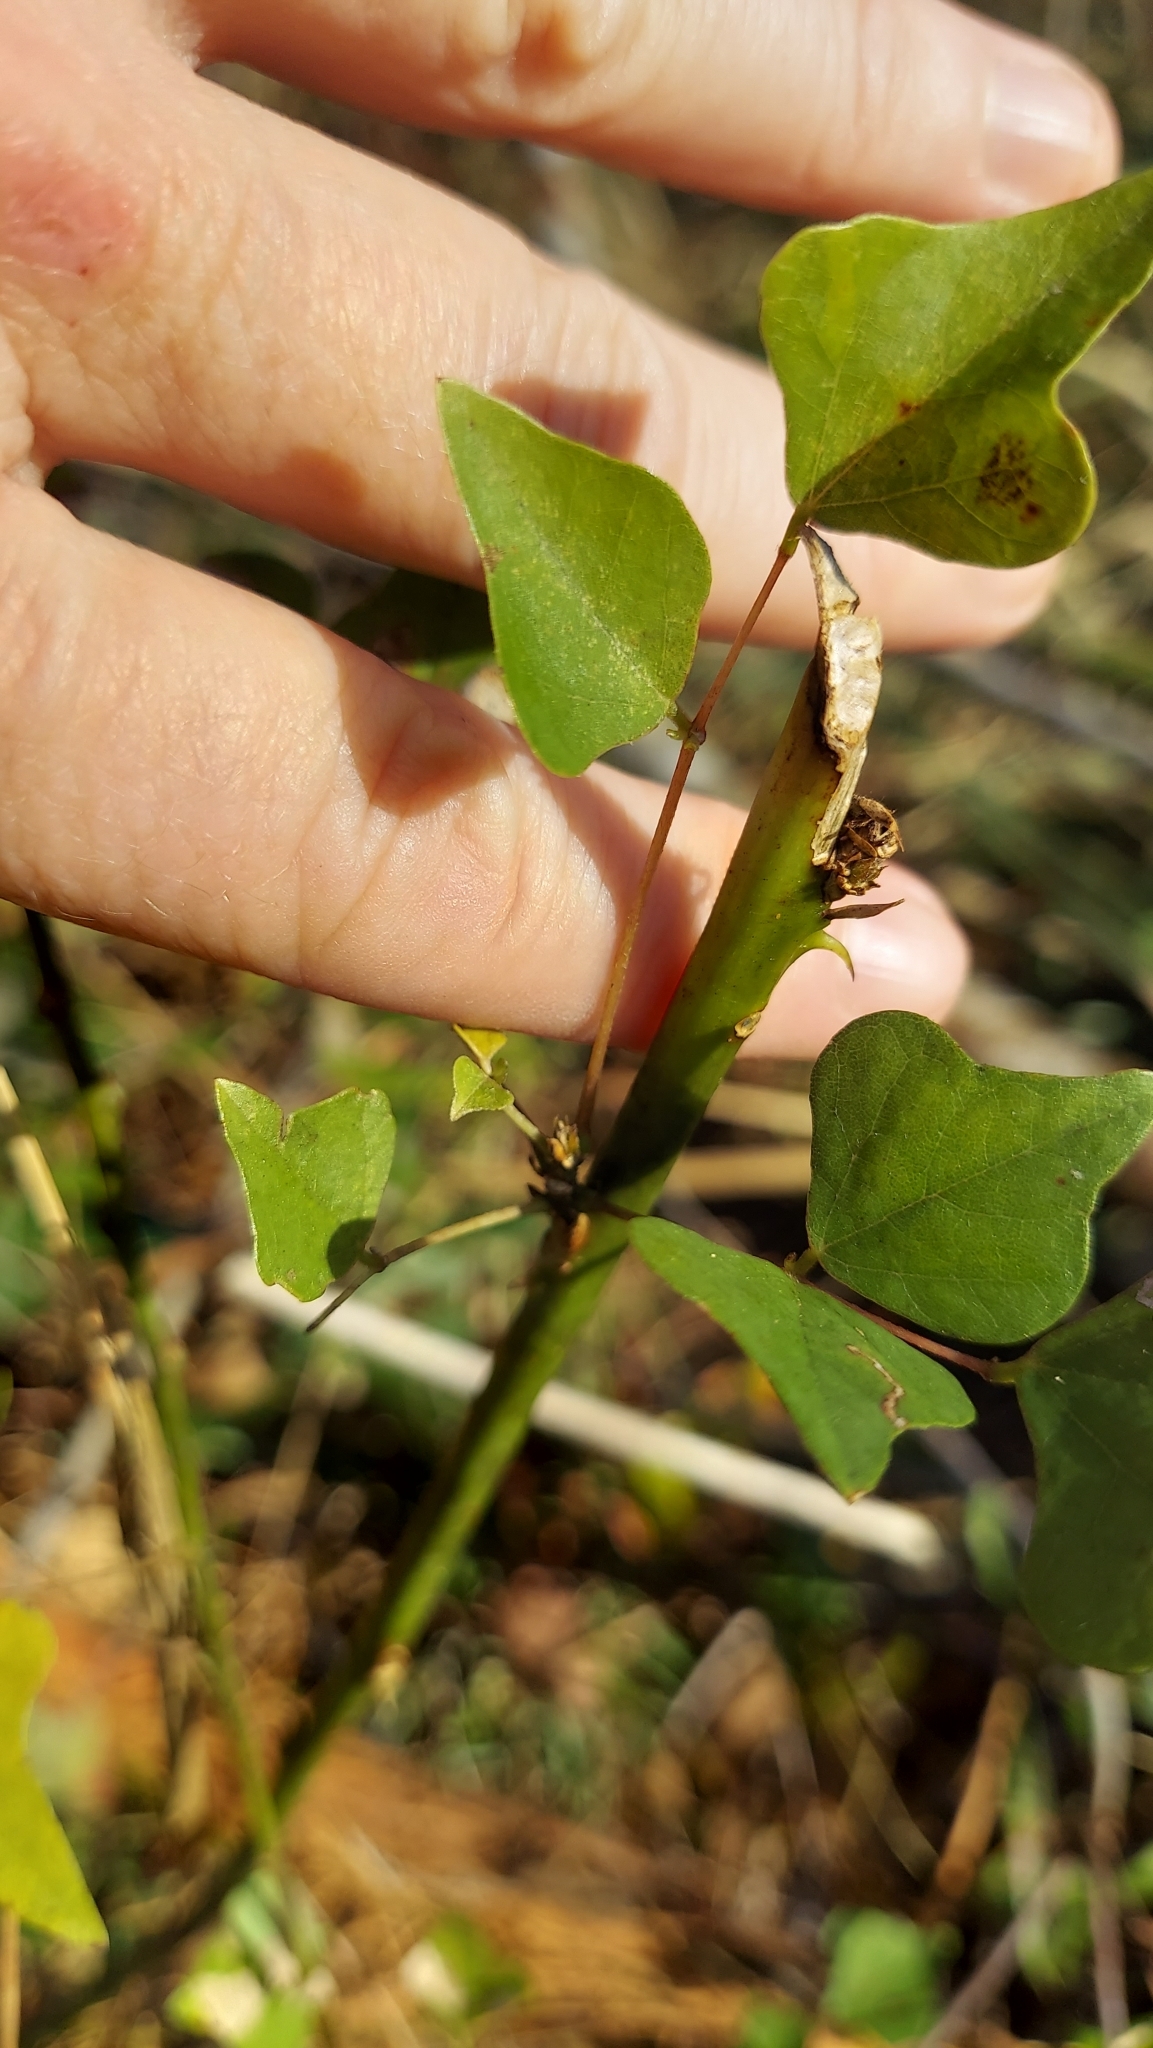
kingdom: Plantae
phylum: Tracheophyta
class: Magnoliopsida
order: Fabales
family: Fabaceae
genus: Erythrina
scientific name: Erythrina herbacea
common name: Coral-bean
